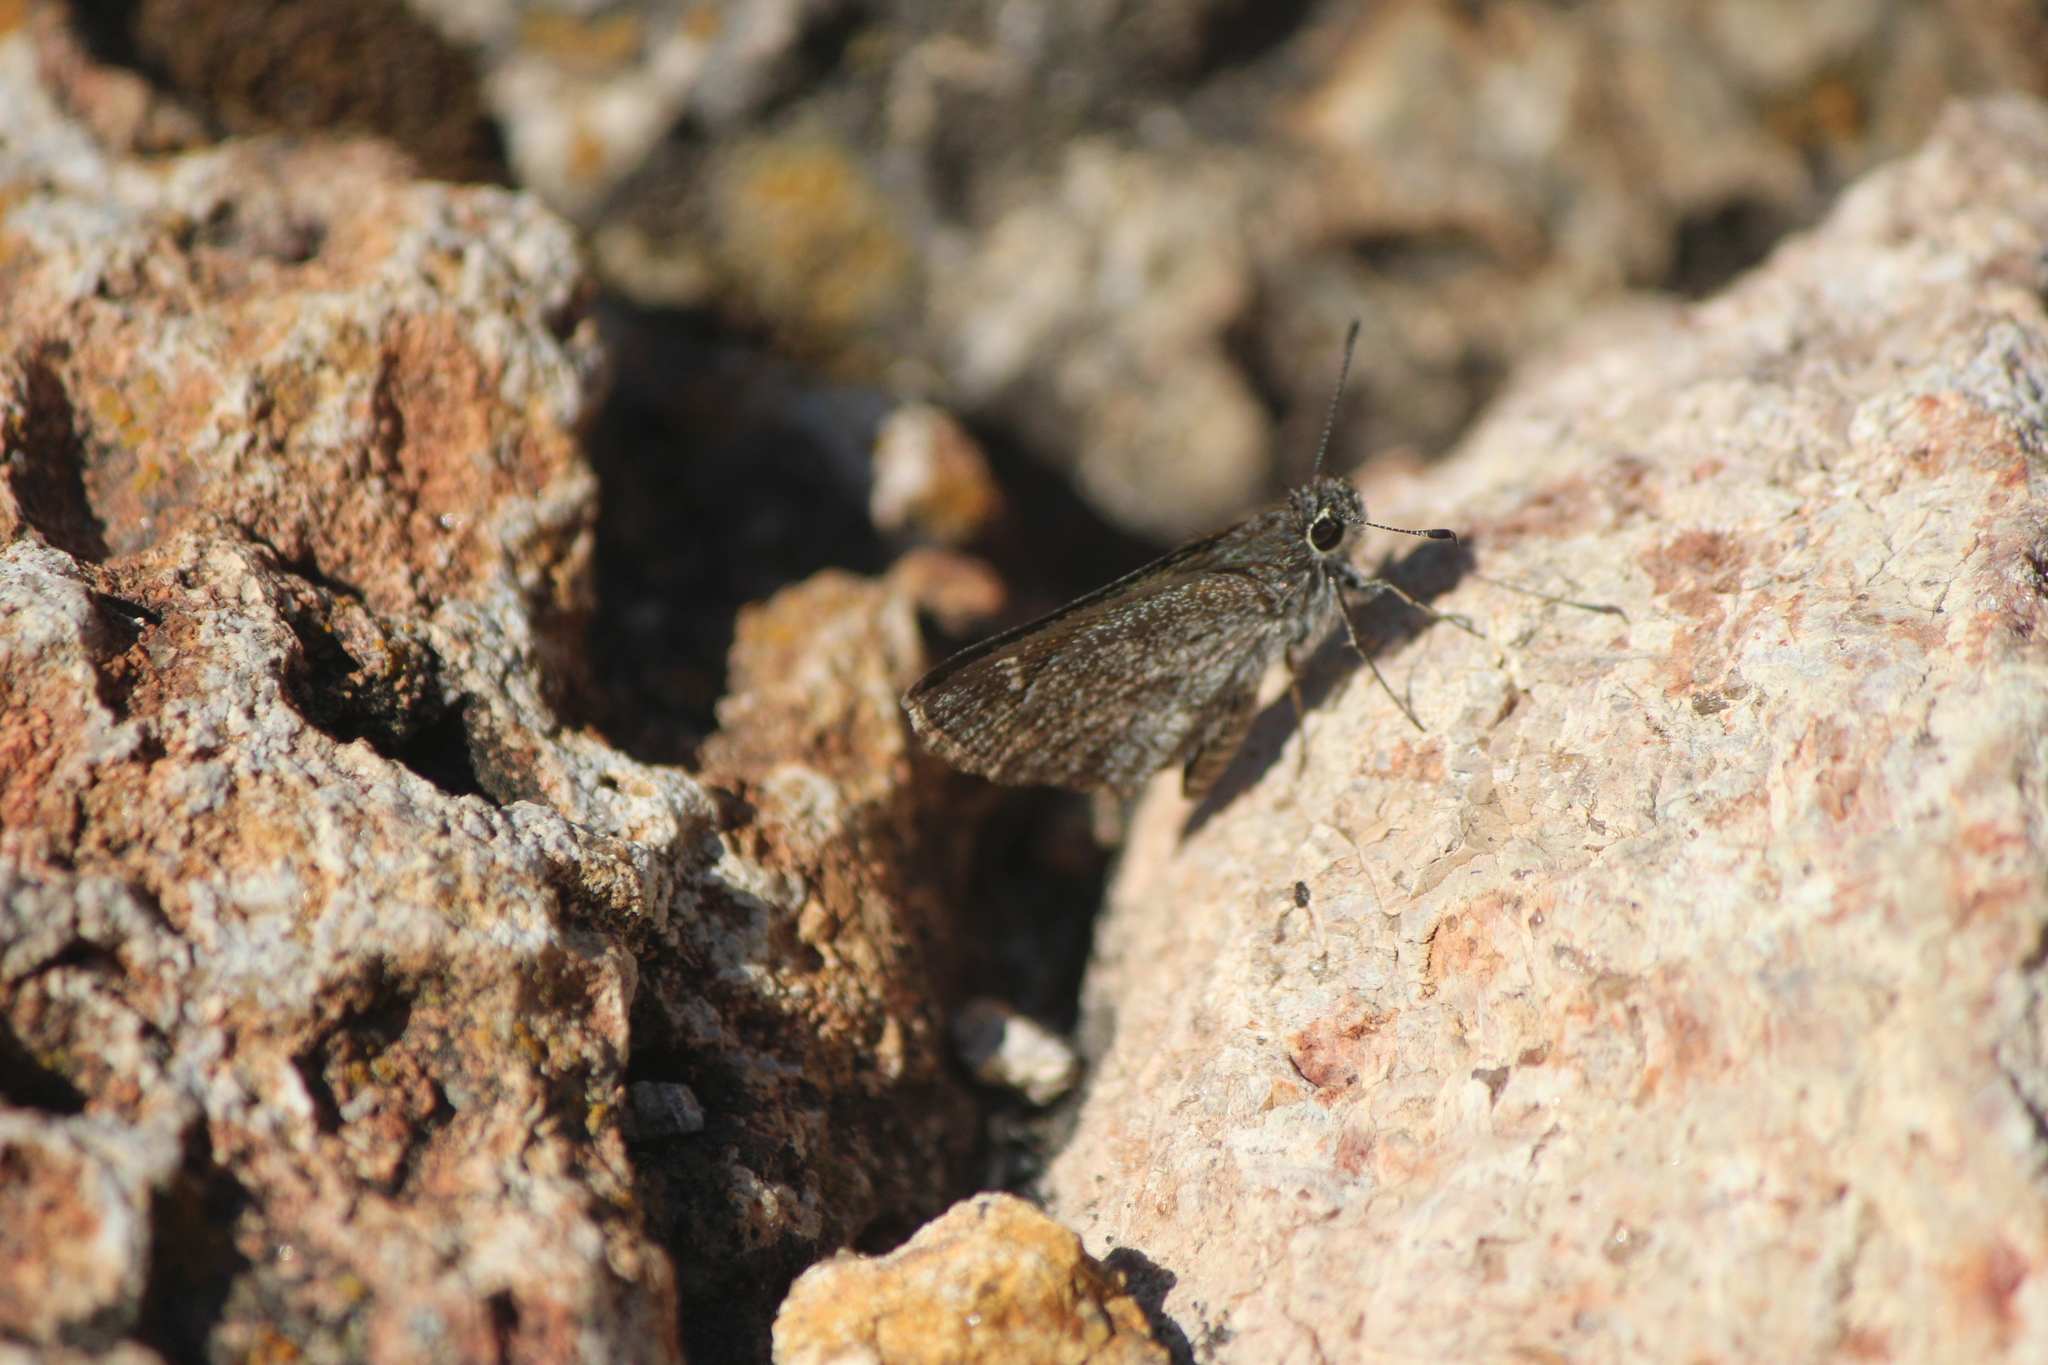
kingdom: Animalia
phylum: Arthropoda
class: Insecta
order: Lepidoptera
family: Hesperiidae
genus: Mastor
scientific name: Mastor fluonia
